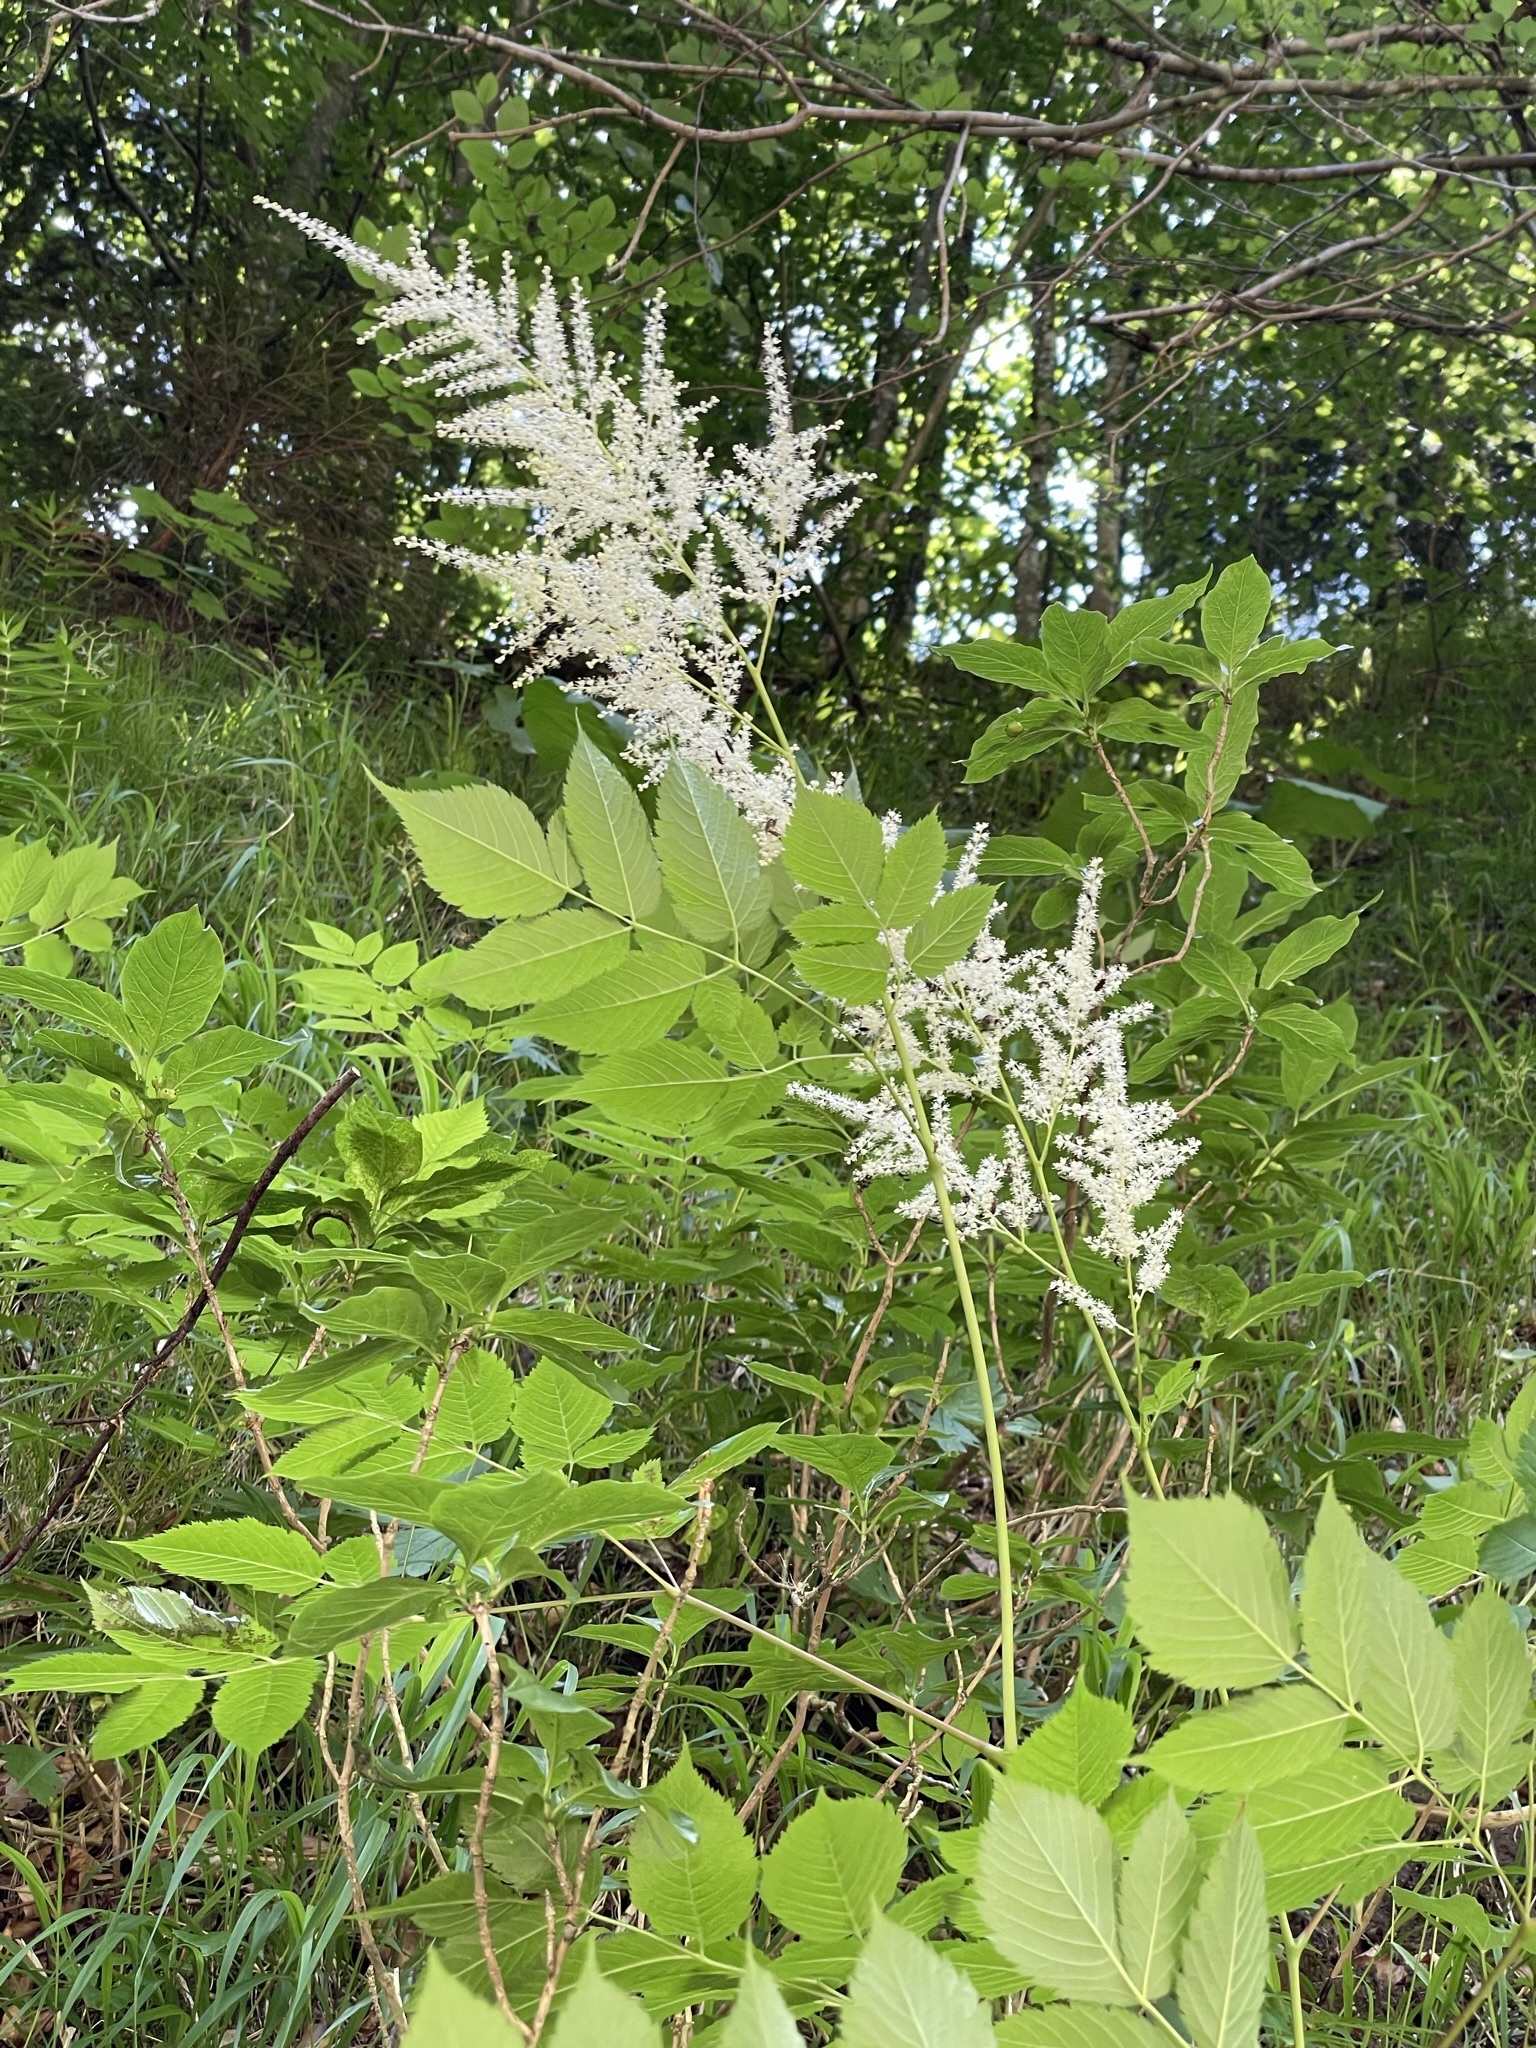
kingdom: Plantae
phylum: Tracheophyta
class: Magnoliopsida
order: Rosales
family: Rosaceae
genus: Aruncus
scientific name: Aruncus dioicus
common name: Buck's-beard
